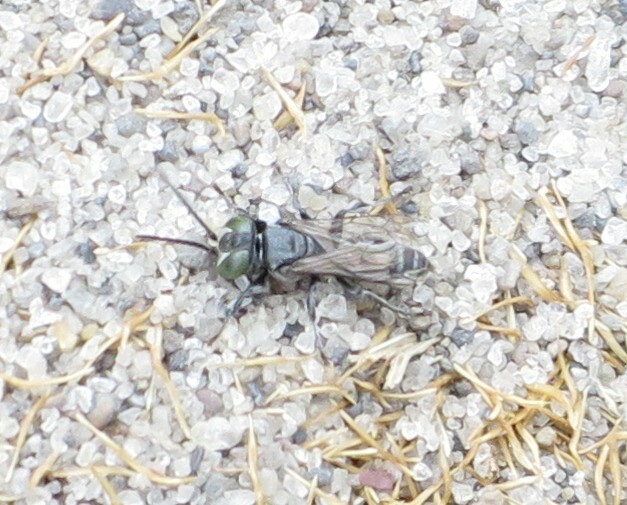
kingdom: Animalia
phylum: Arthropoda
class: Insecta
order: Hymenoptera
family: Crabronidae
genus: Tachysphex
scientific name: Tachysphex nigerrimus
